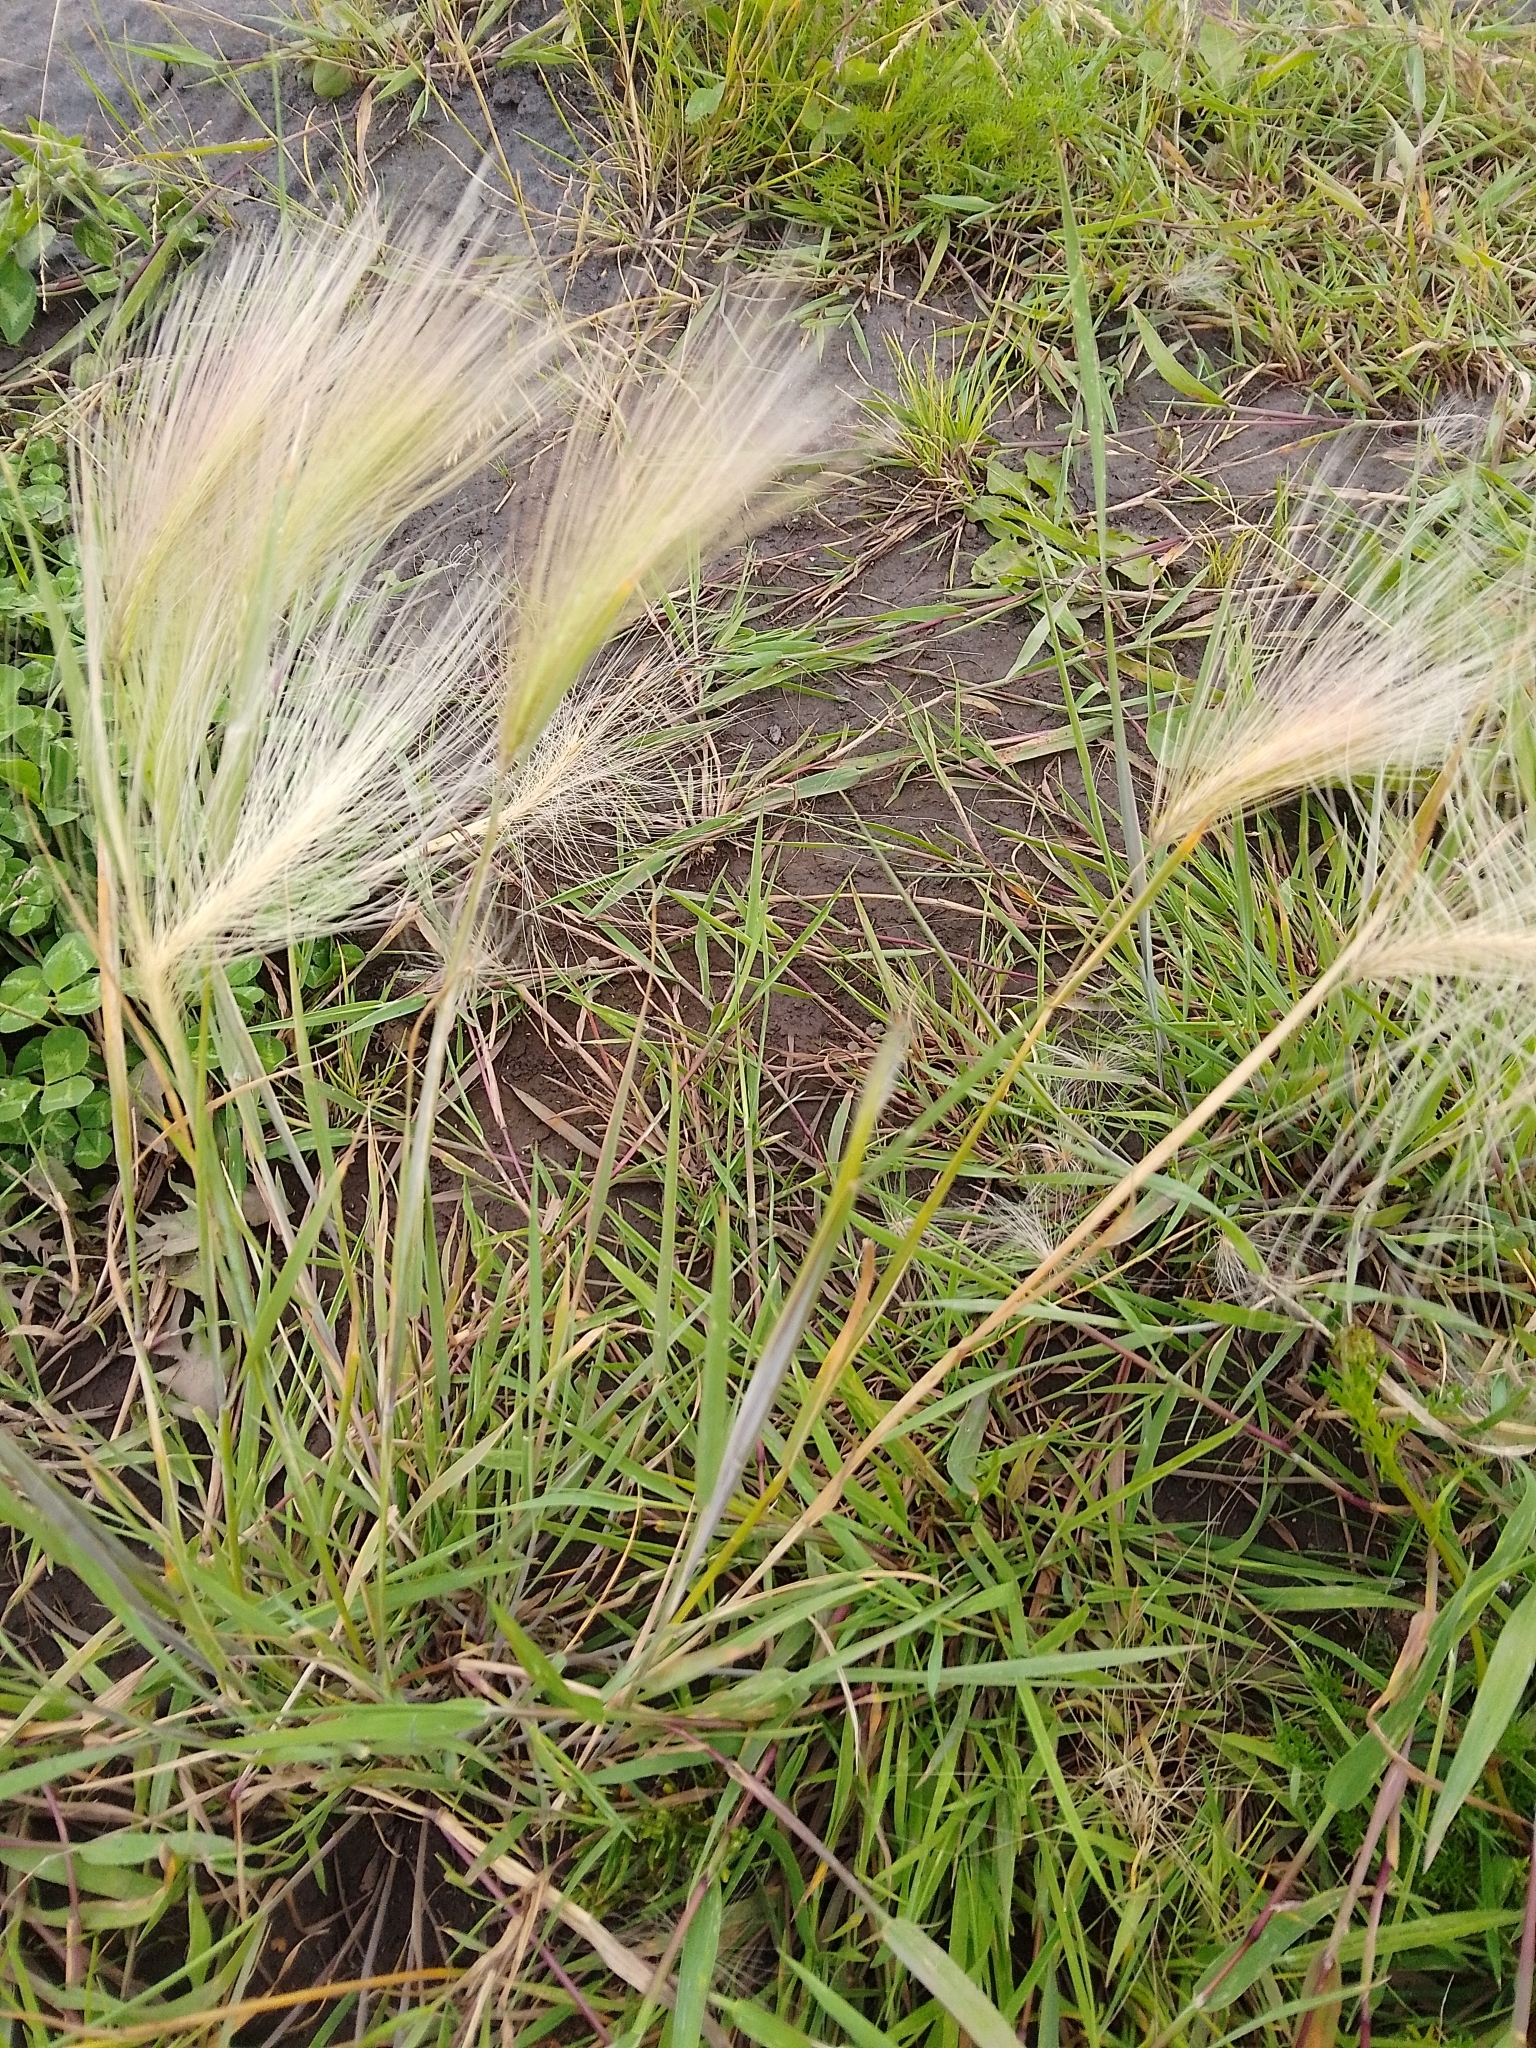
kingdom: Plantae
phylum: Tracheophyta
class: Liliopsida
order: Poales
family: Poaceae
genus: Hordeum
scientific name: Hordeum jubatum
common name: Foxtail barley
